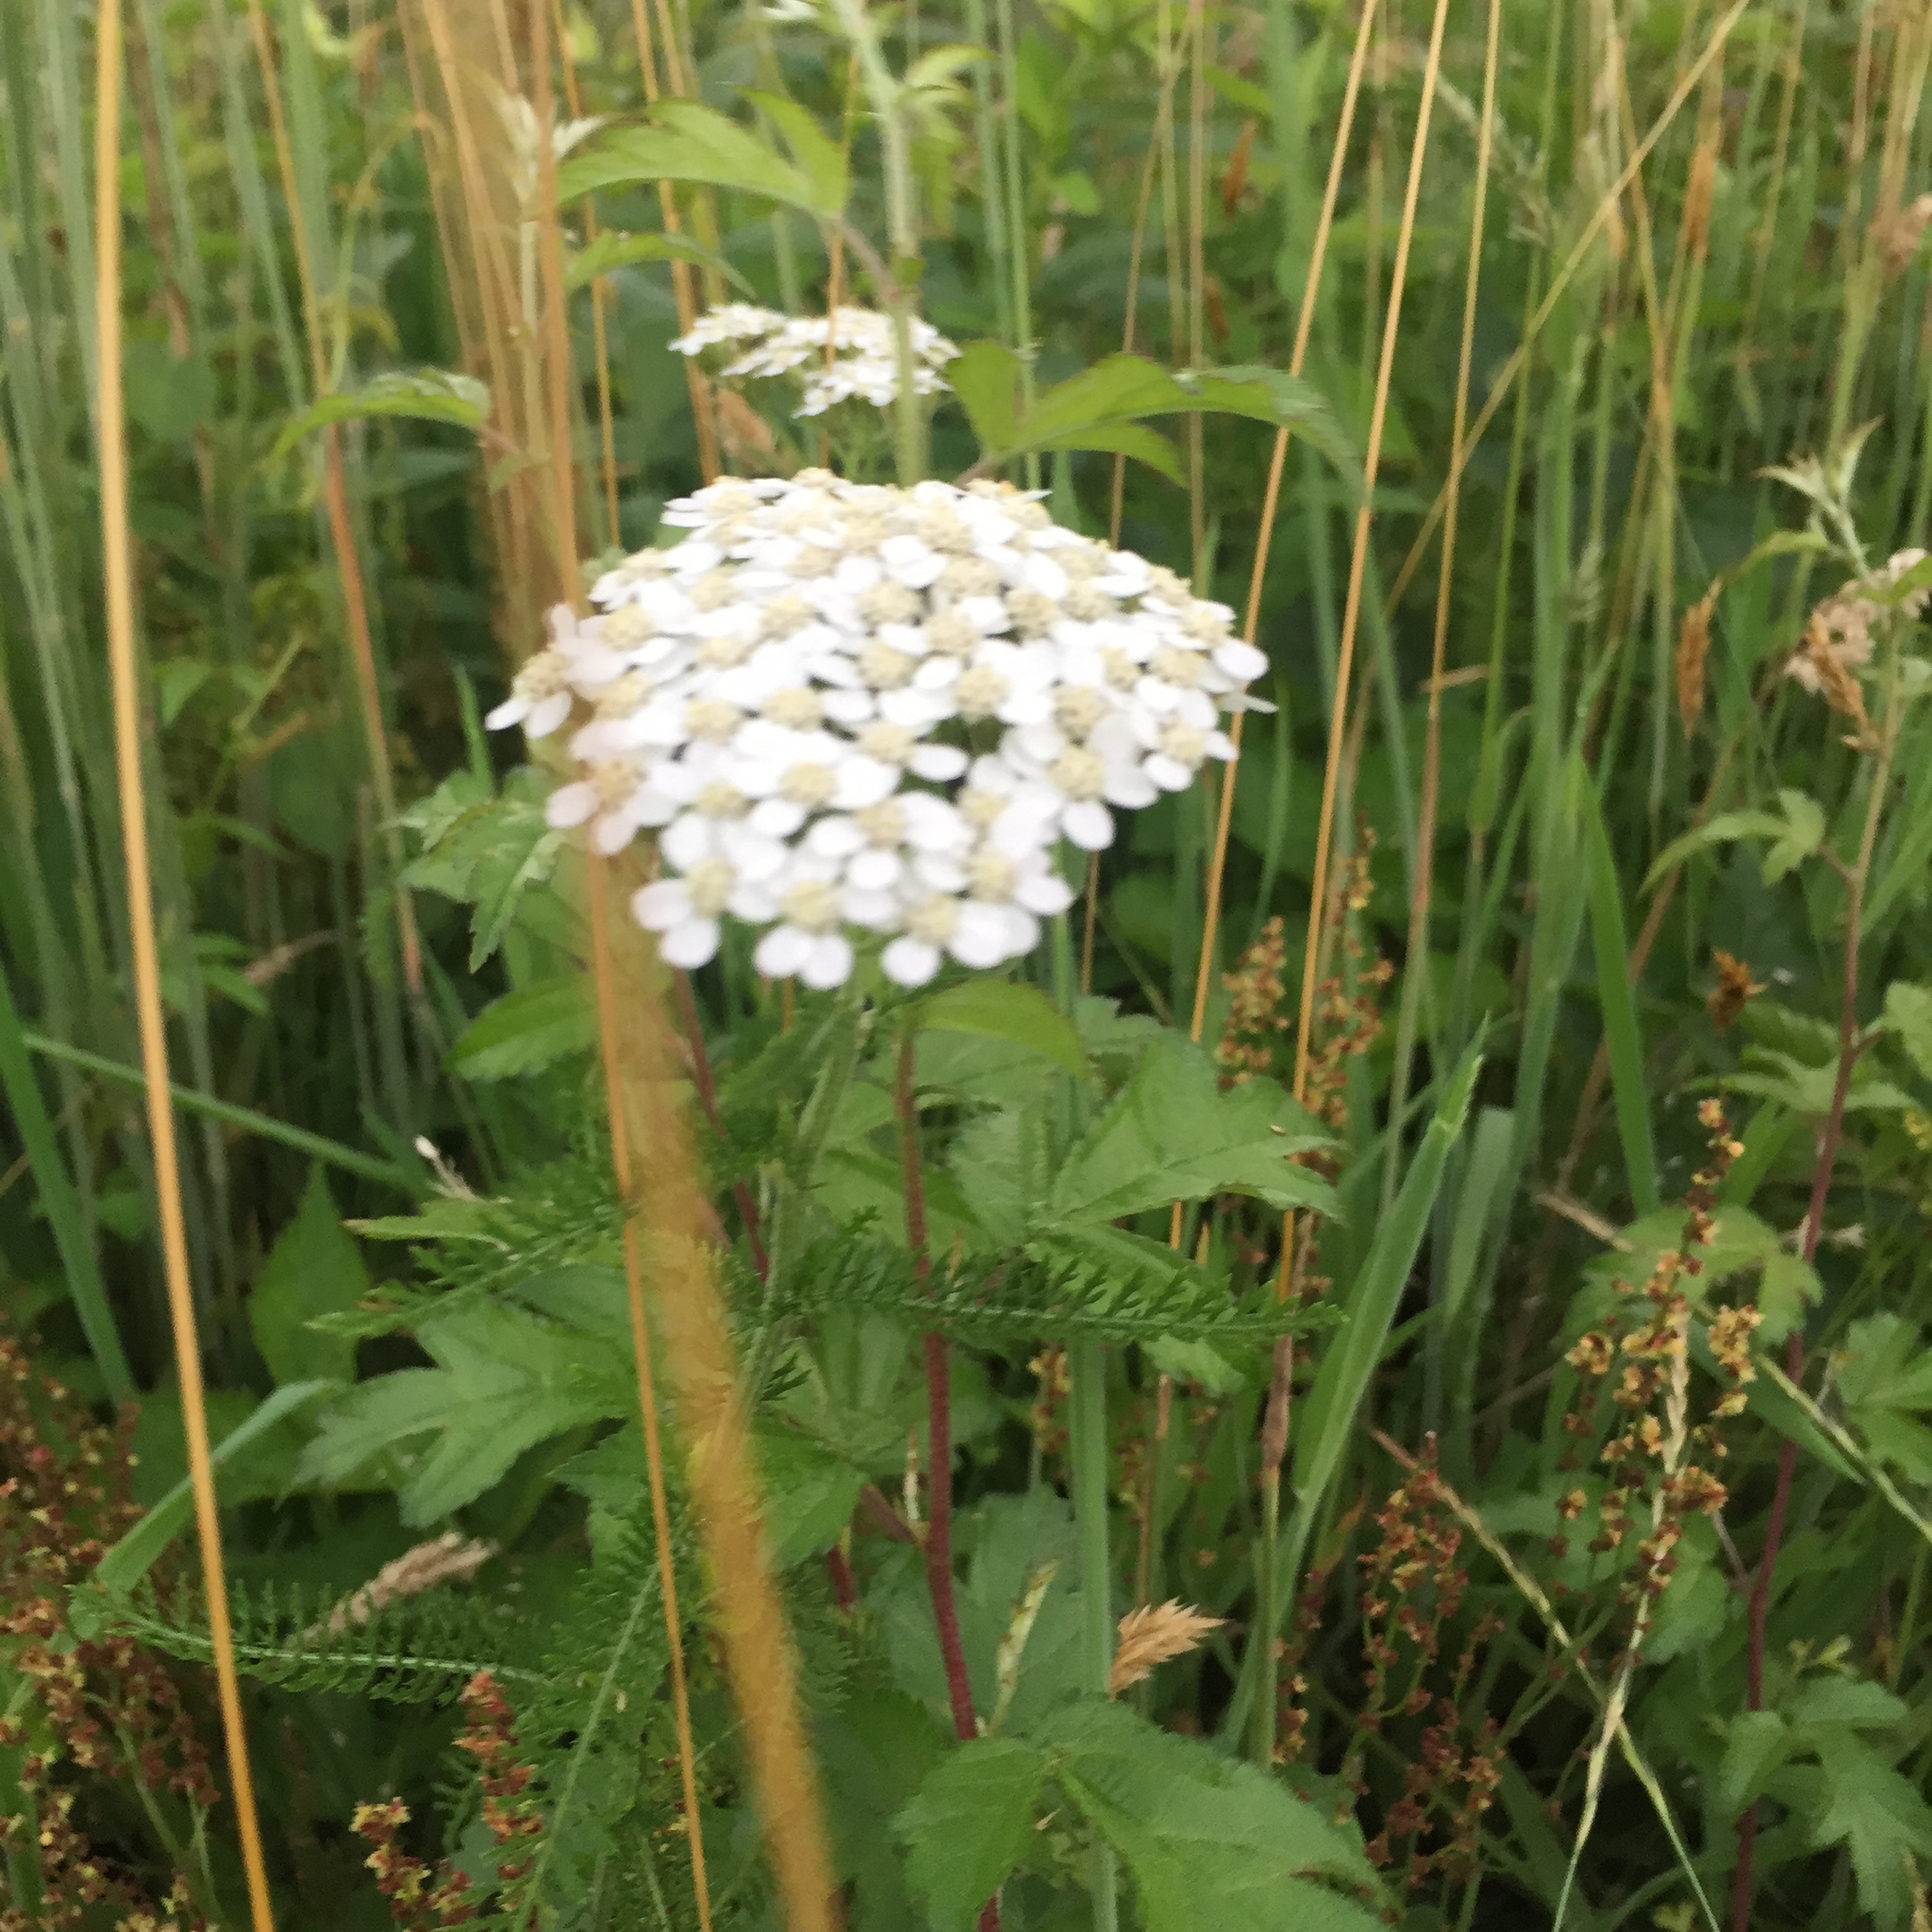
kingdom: Plantae
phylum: Tracheophyta
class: Magnoliopsida
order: Asterales
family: Asteraceae
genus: Achillea
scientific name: Achillea millefolium
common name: Yarrow
